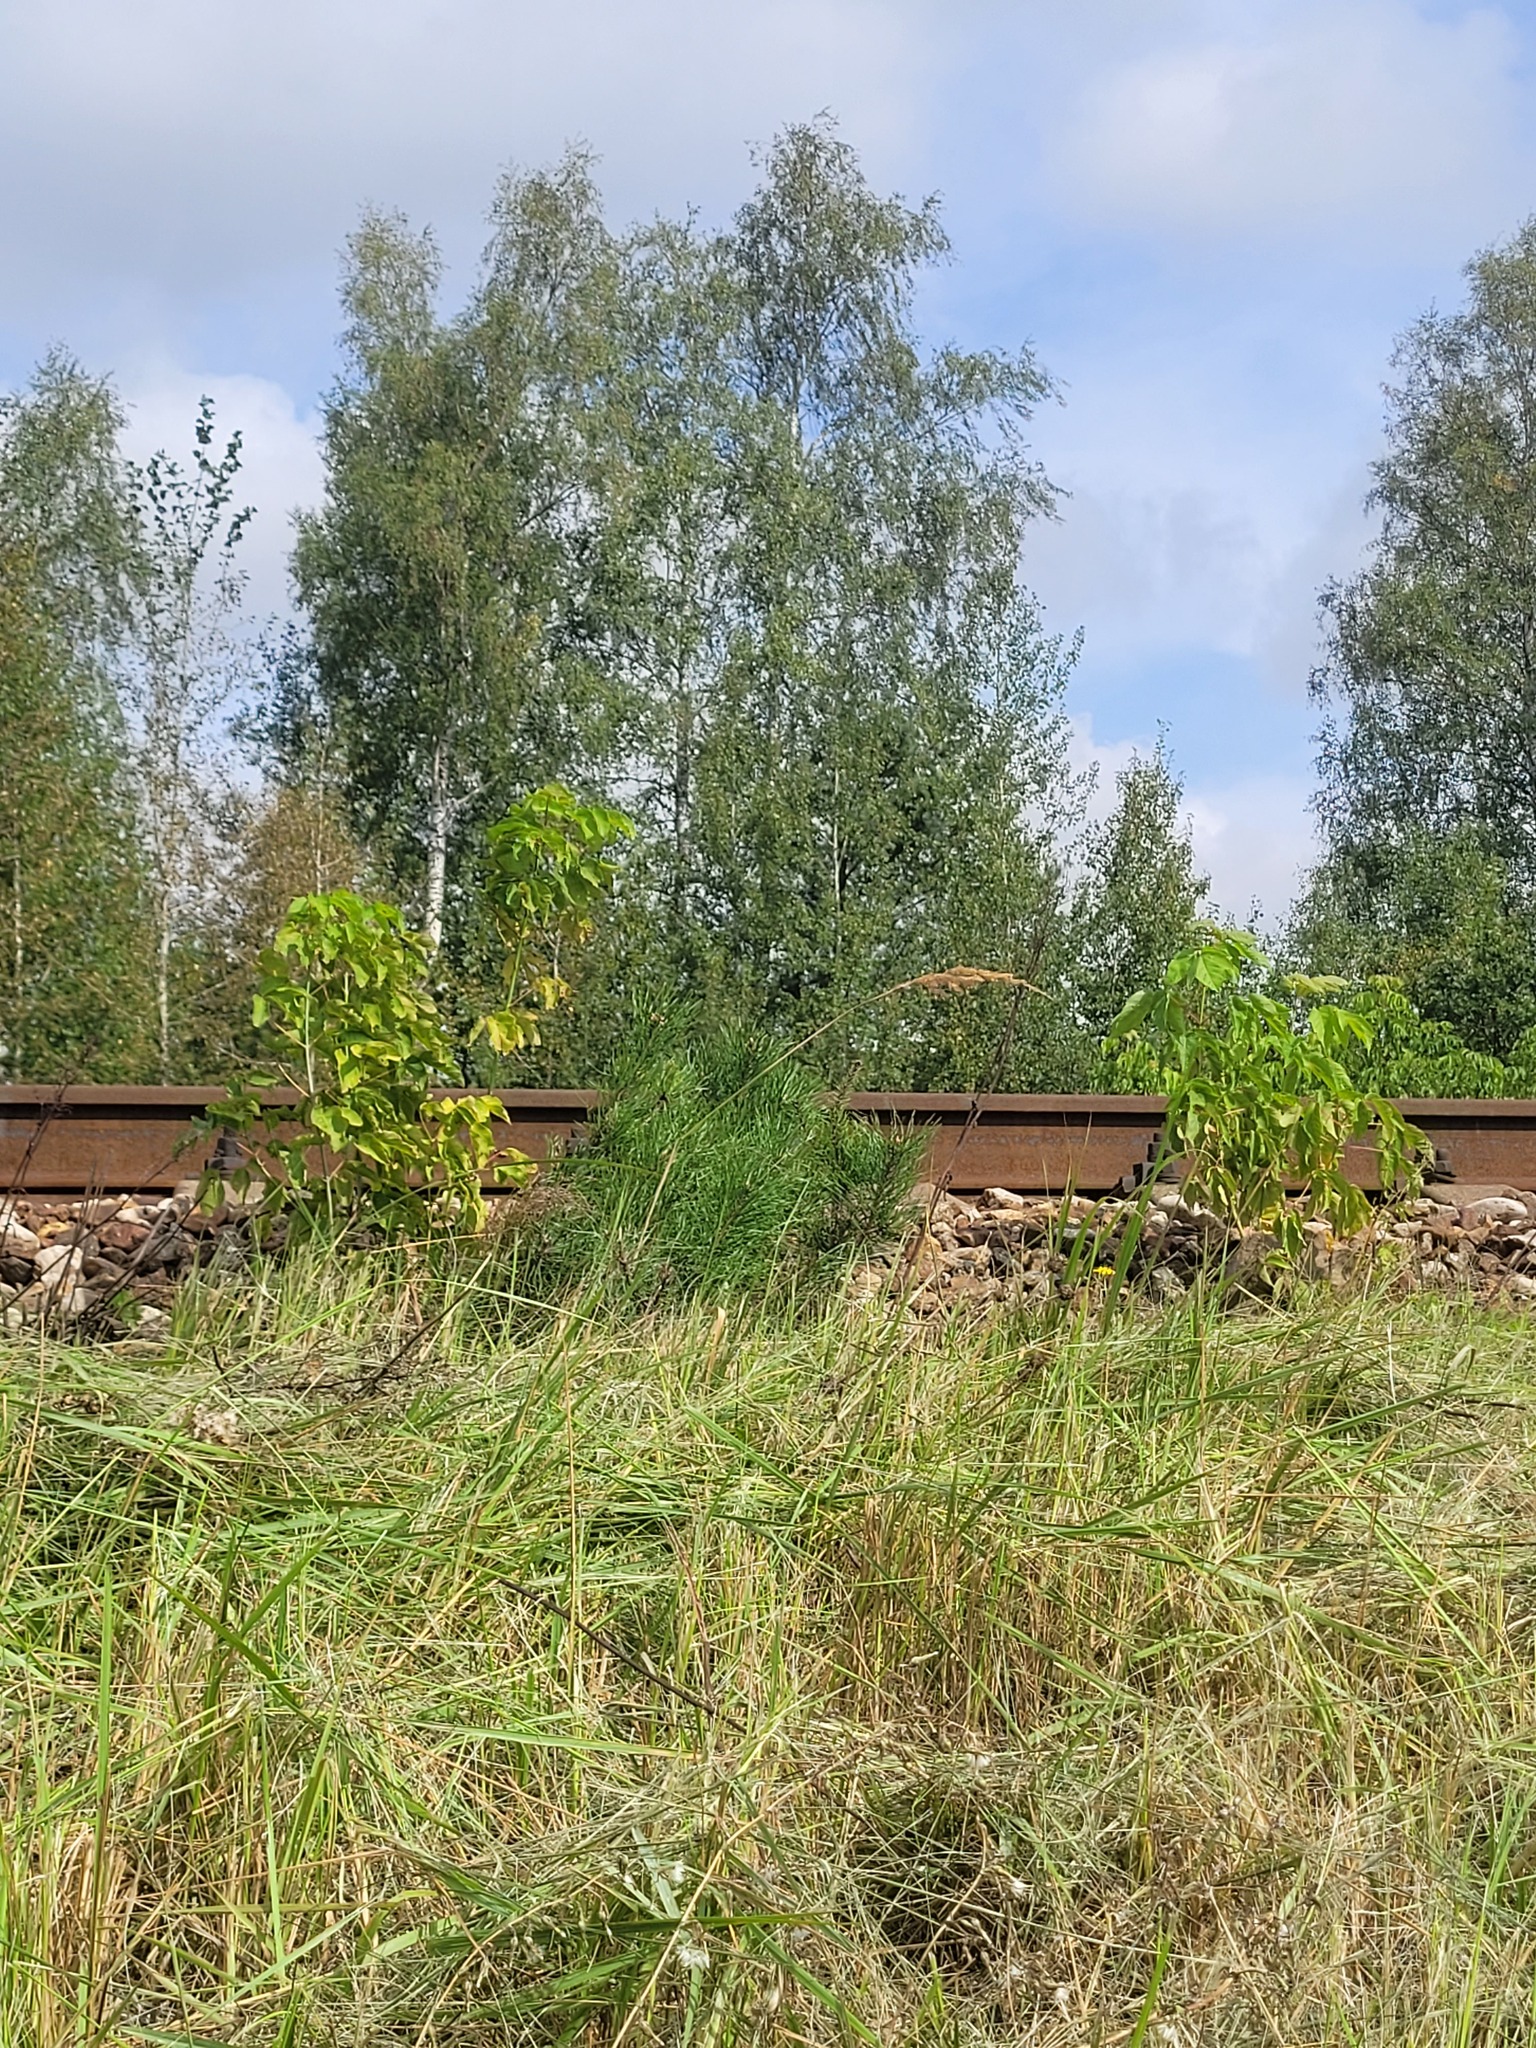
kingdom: Plantae
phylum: Tracheophyta
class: Pinopsida
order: Pinales
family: Pinaceae
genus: Pinus
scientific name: Pinus sylvestris
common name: Scots pine
